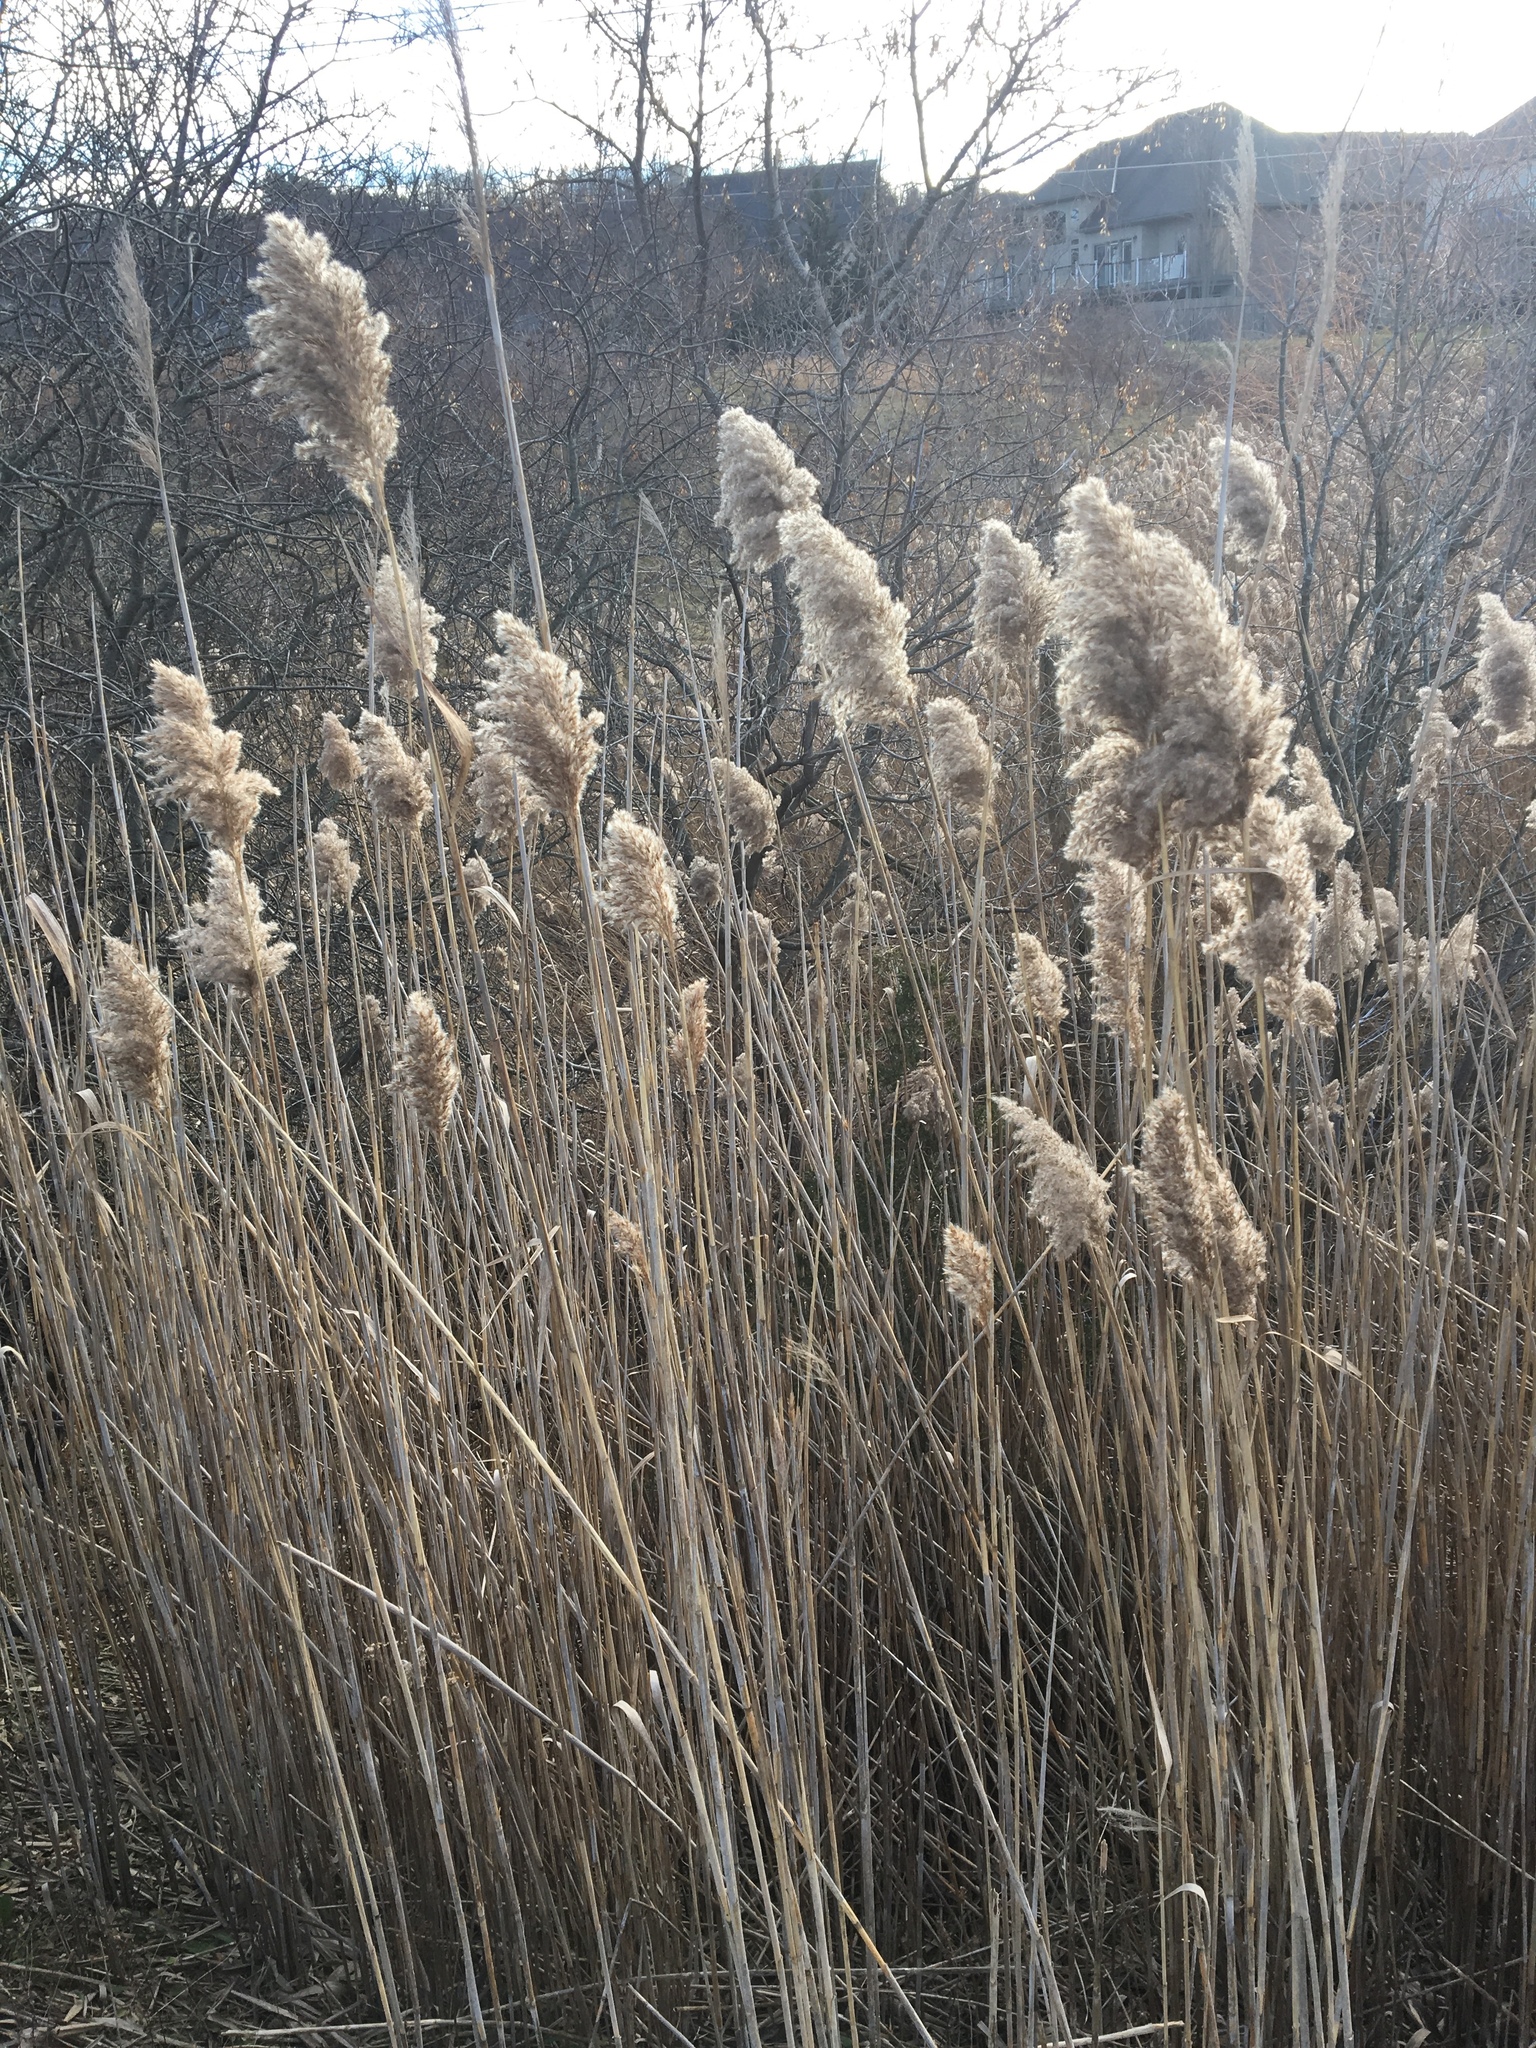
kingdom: Plantae
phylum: Tracheophyta
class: Liliopsida
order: Poales
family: Poaceae
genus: Phragmites
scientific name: Phragmites australis
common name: Common reed
